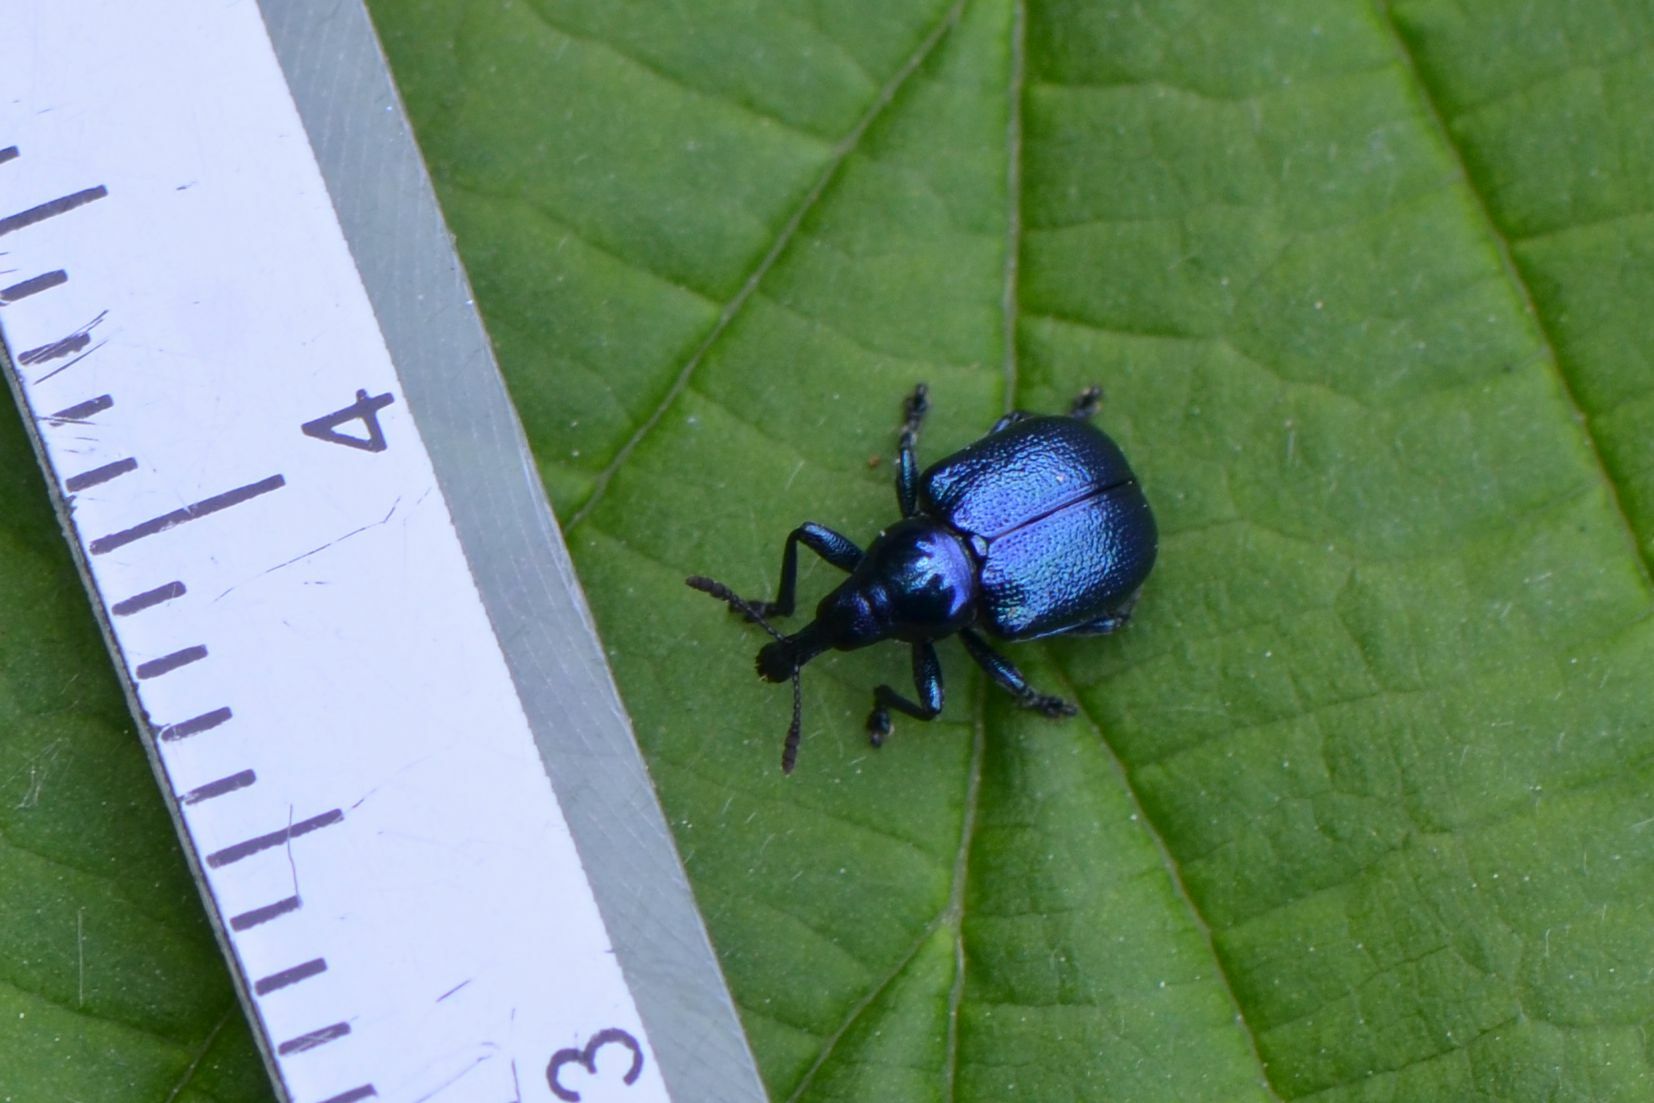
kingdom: Animalia
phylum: Arthropoda
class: Insecta
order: Coleoptera
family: Attelabidae
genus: Byctiscus
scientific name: Byctiscus betulae
